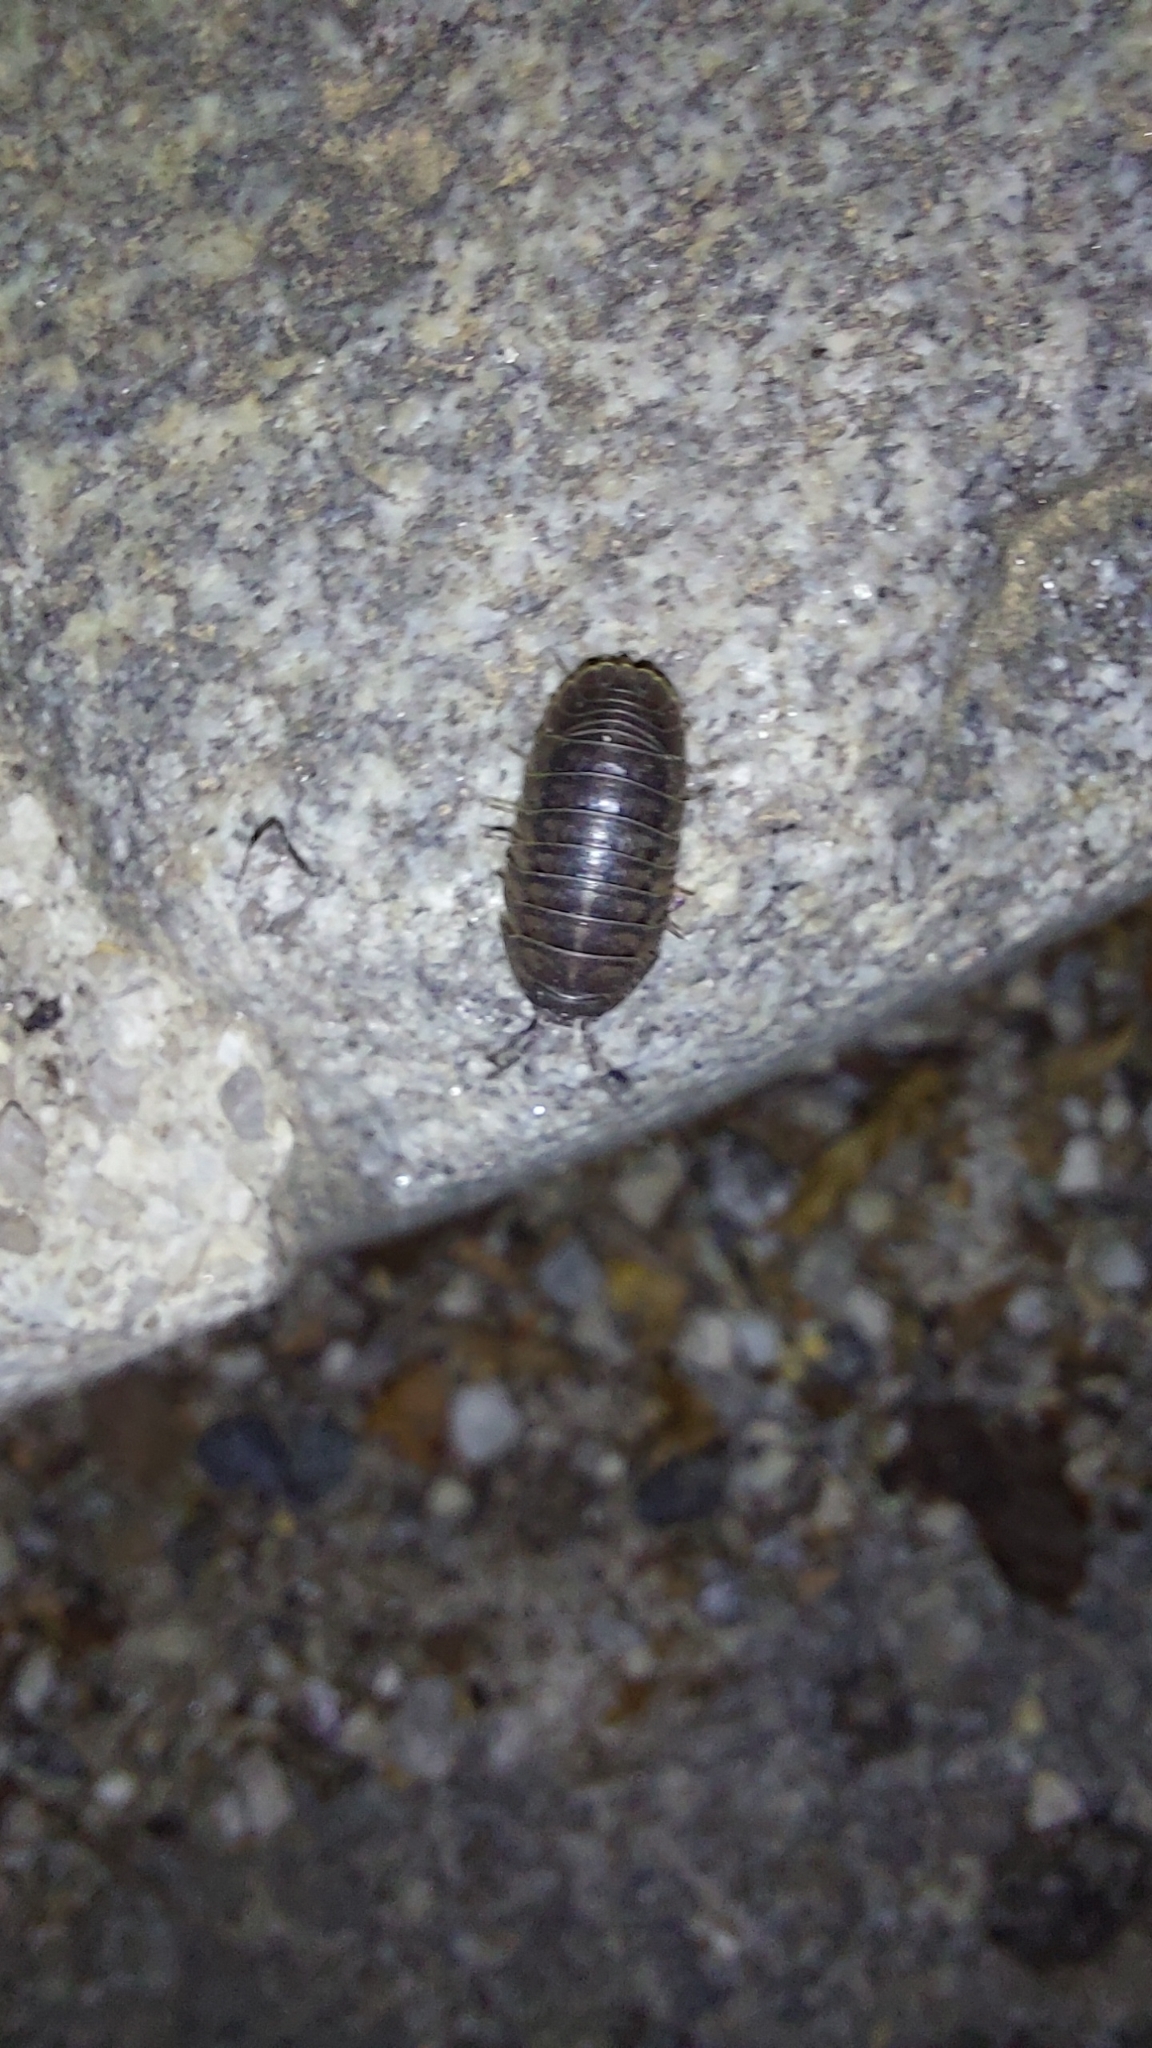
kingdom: Animalia
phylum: Arthropoda
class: Malacostraca
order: Isopoda
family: Armadillidiidae
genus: Armadillidium
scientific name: Armadillidium nasatum
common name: Isopod
